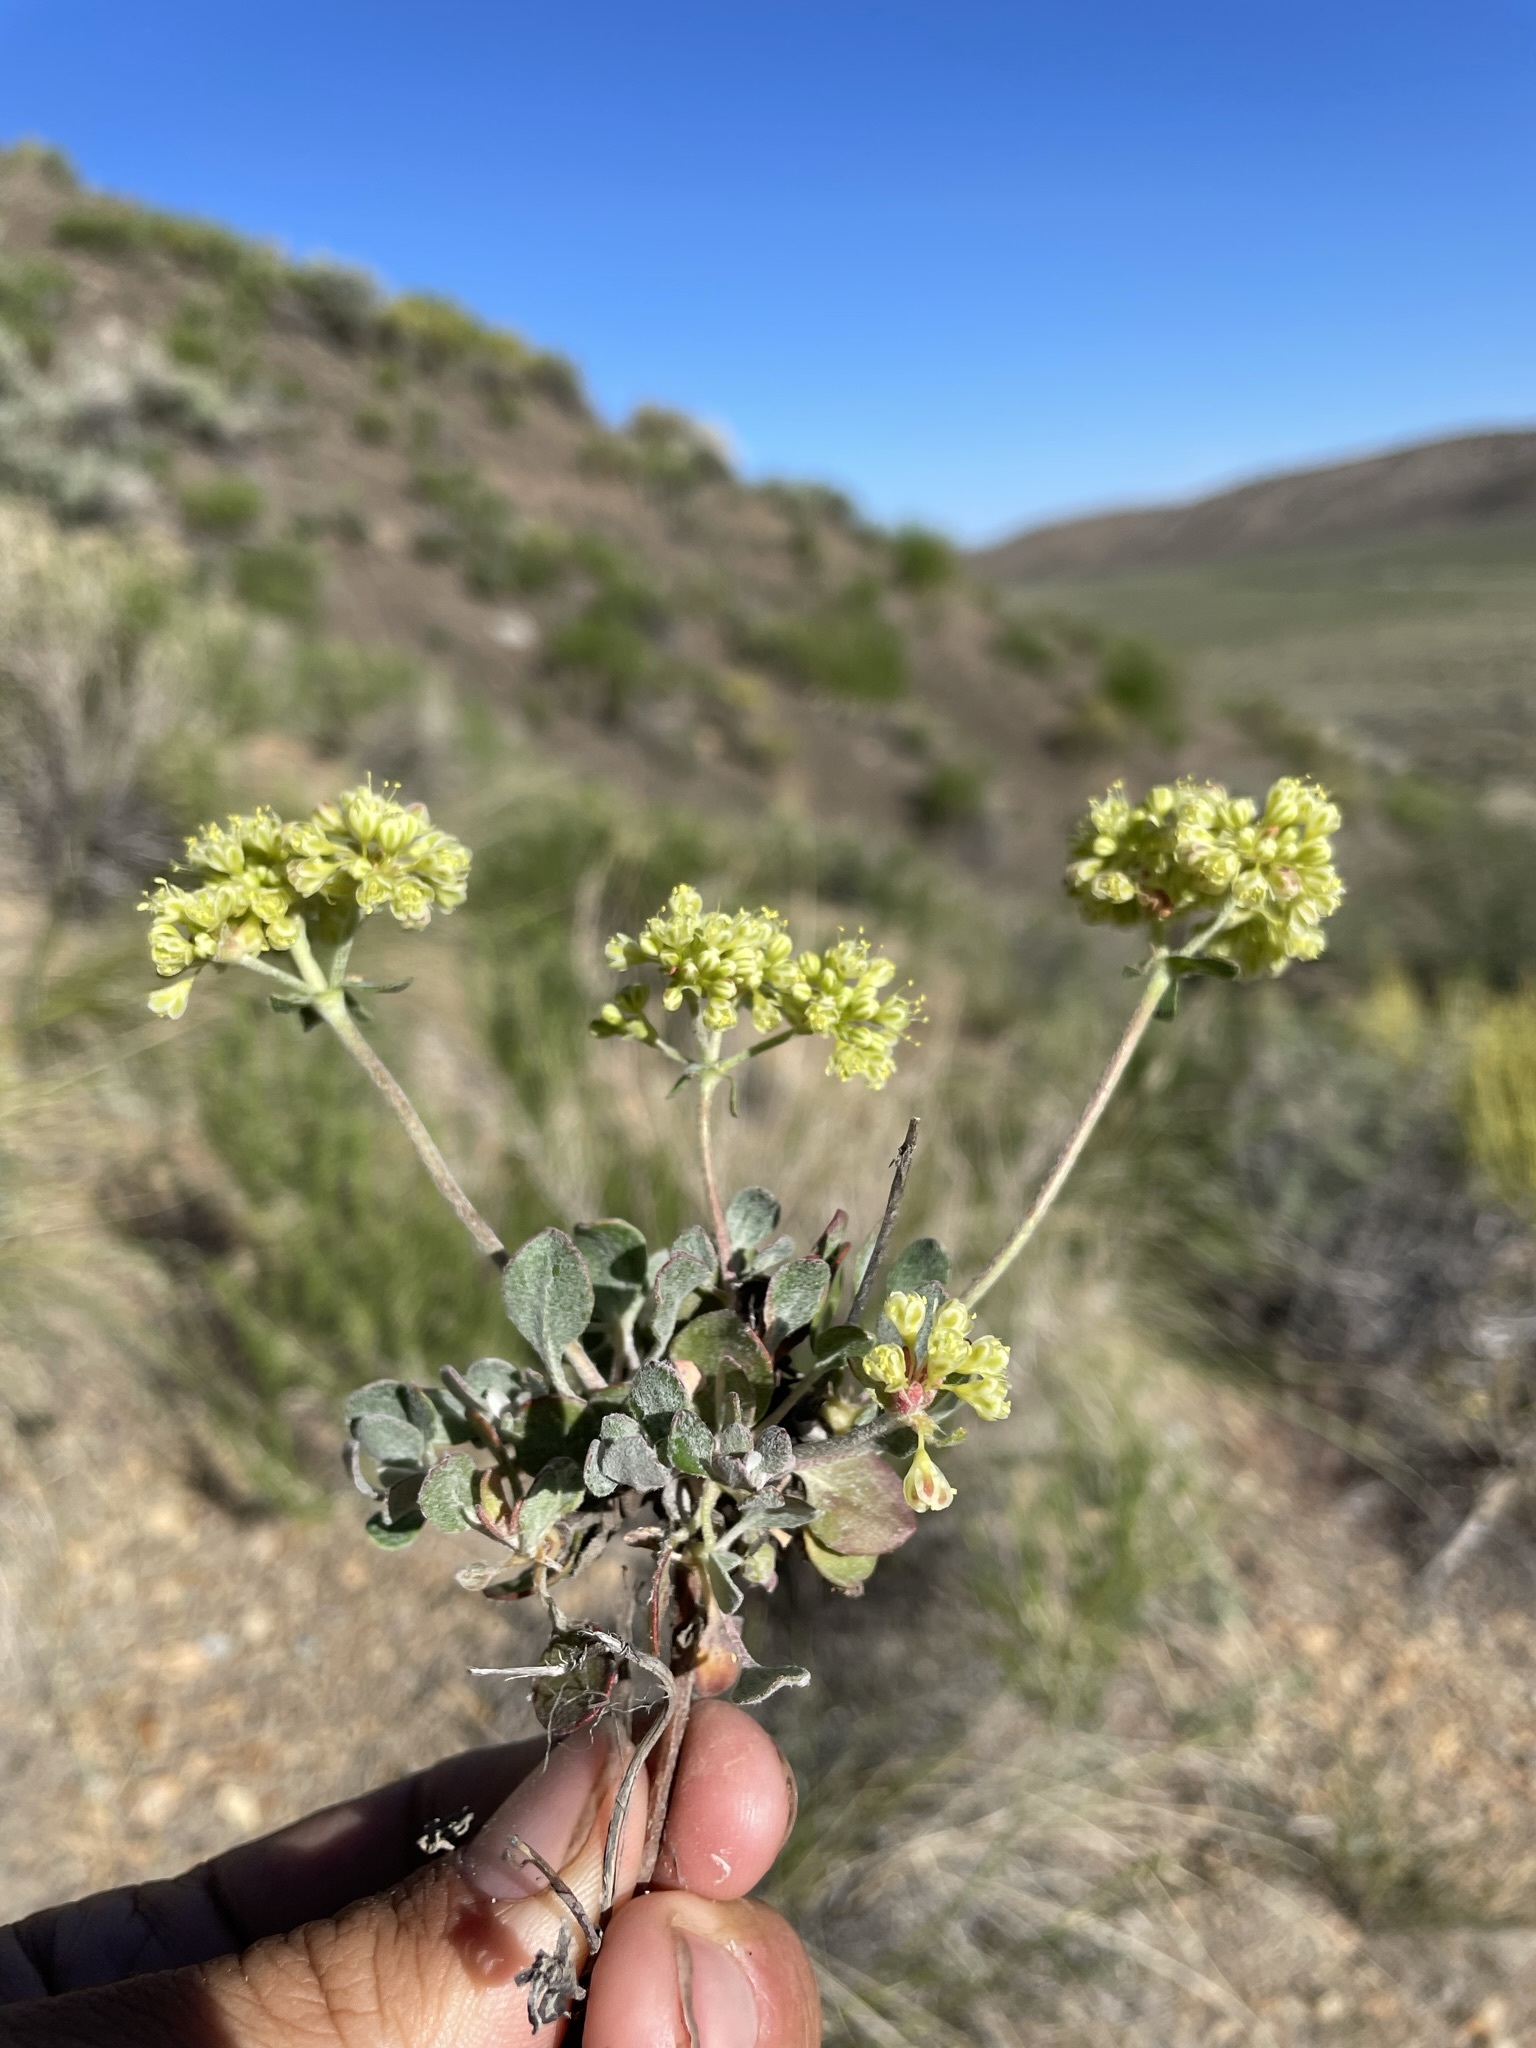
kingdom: Plantae
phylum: Tracheophyta
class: Magnoliopsida
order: Caryophyllales
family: Polygonaceae
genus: Eriogonum
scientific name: Eriogonum umbellatum
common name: Sulfur-buckwheat
